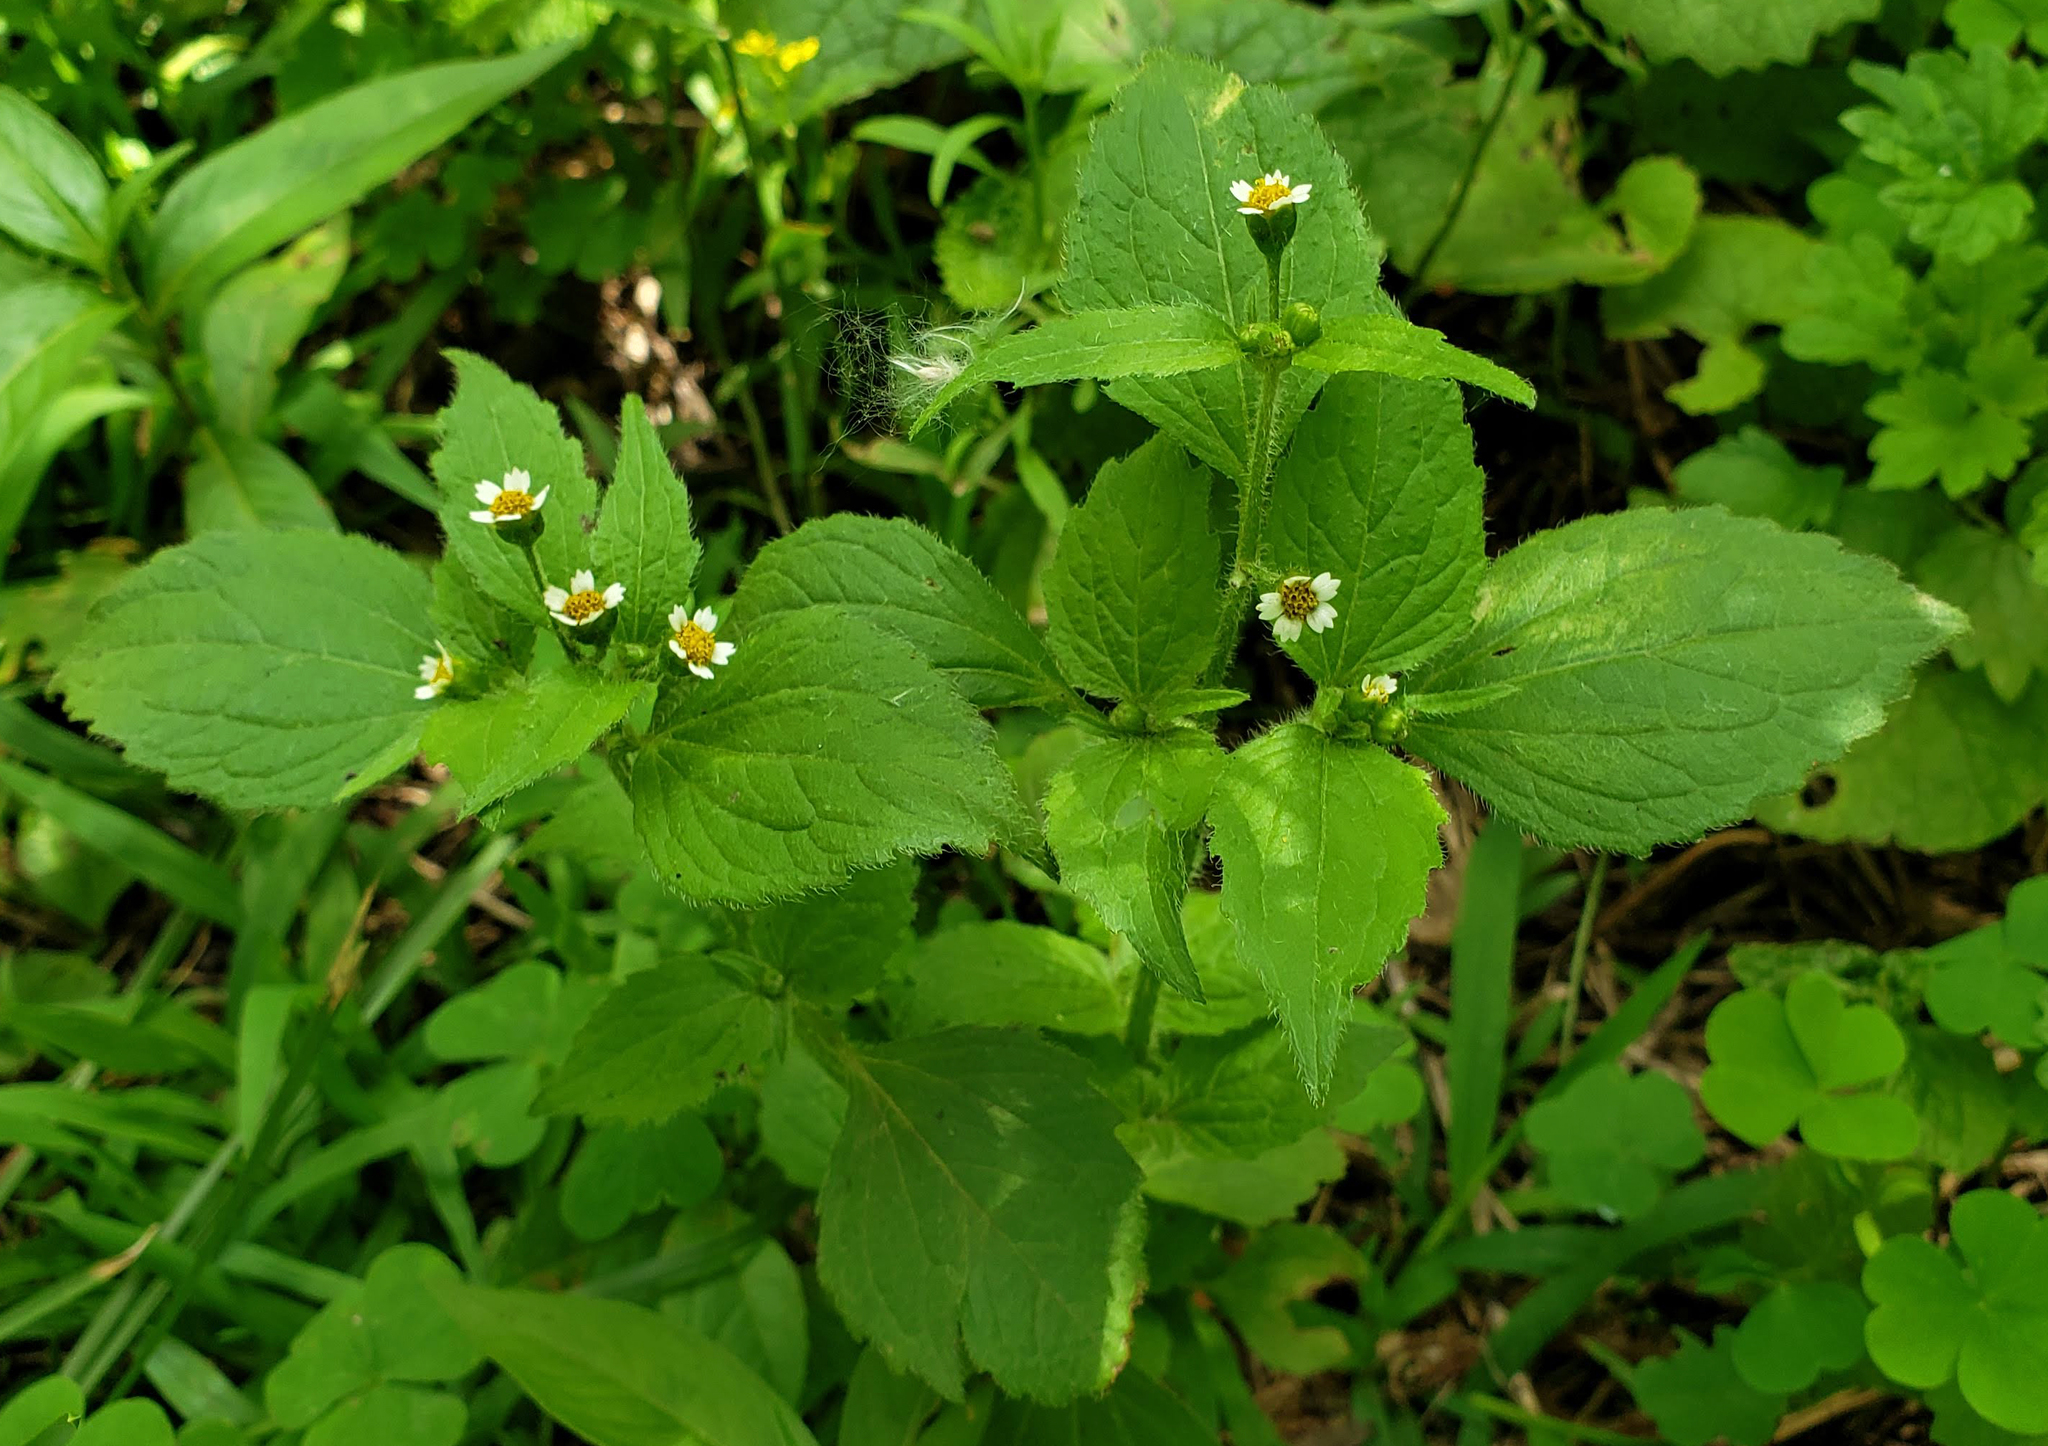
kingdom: Plantae
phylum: Tracheophyta
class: Magnoliopsida
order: Asterales
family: Asteraceae
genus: Galinsoga
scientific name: Galinsoga quadriradiata
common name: Shaggy soldier
